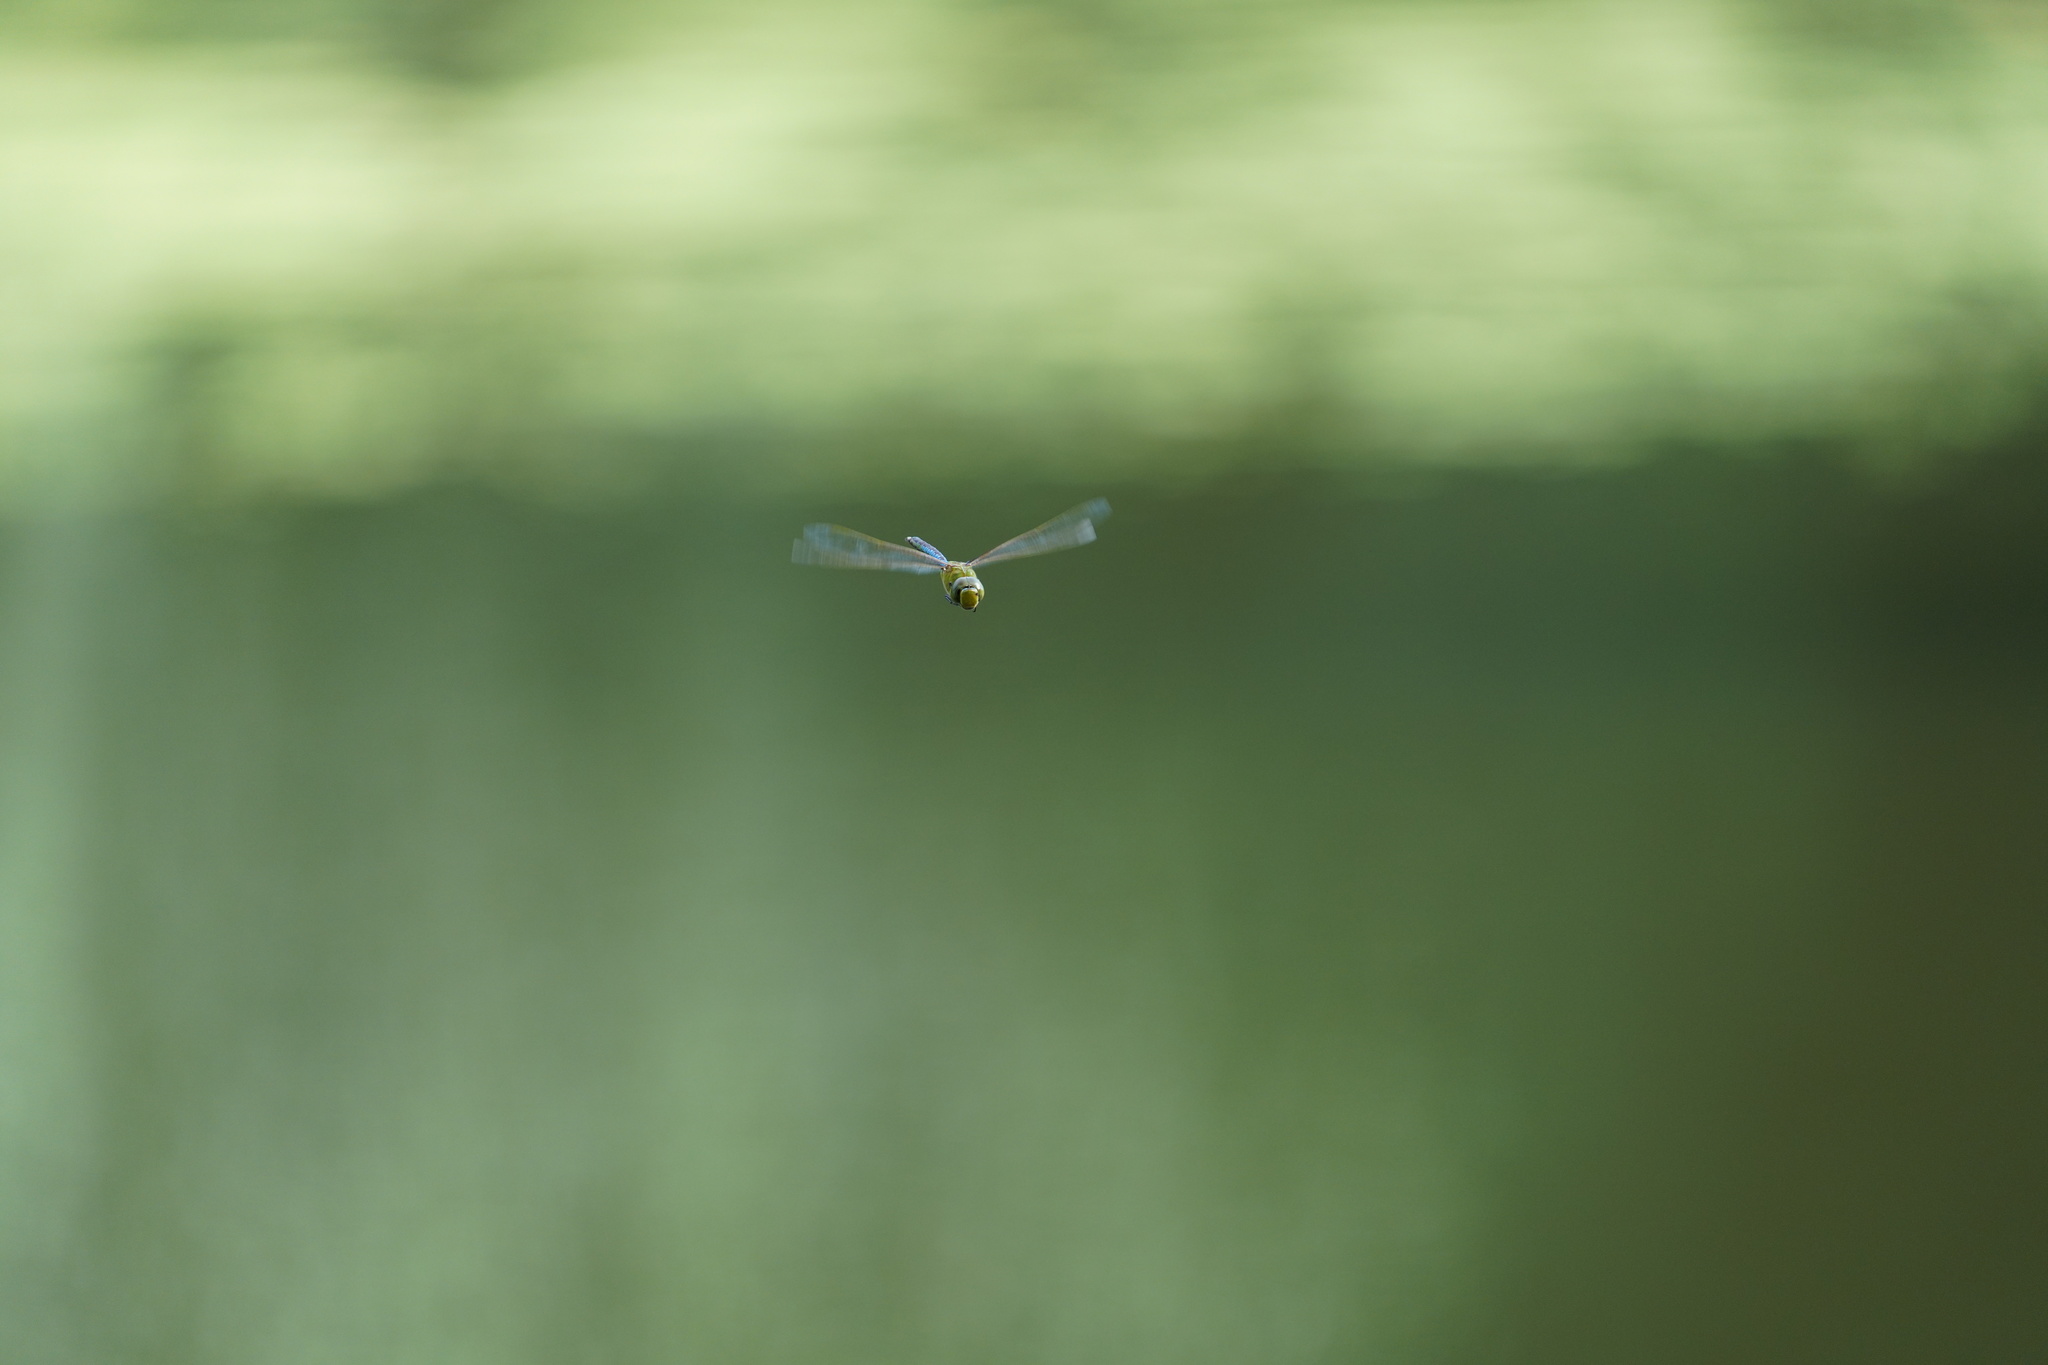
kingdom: Animalia
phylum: Arthropoda
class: Insecta
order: Odonata
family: Aeshnidae
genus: Anax
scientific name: Anax junius
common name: Common green darner
